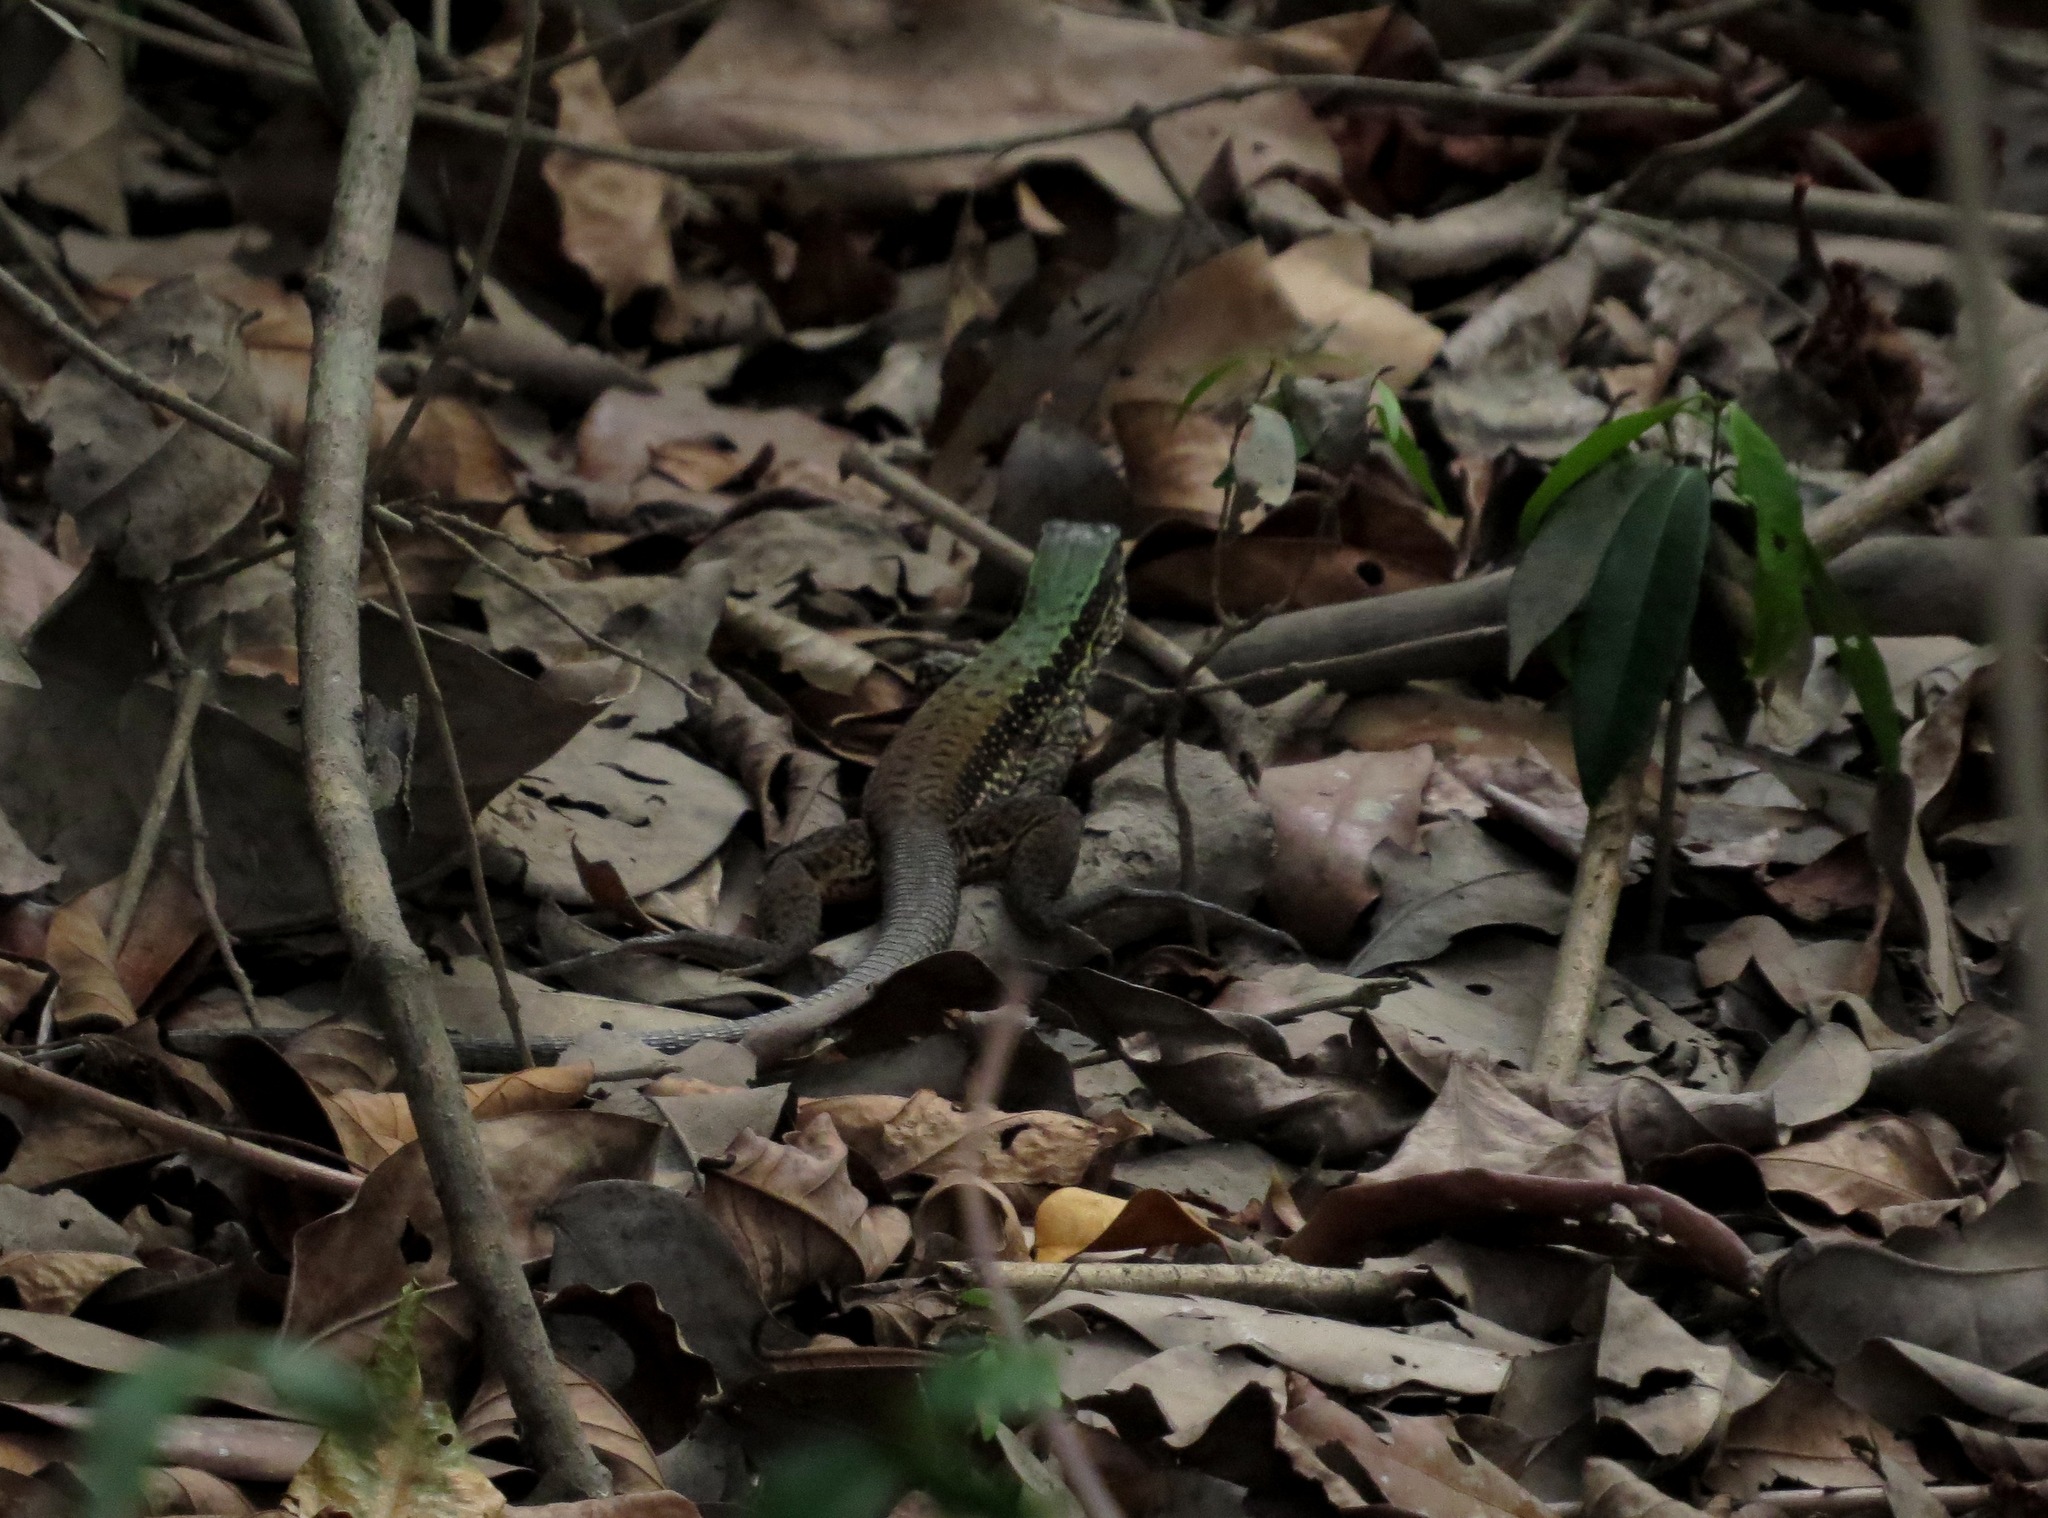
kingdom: Animalia
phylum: Chordata
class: Squamata
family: Teiidae
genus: Ameiva
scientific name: Ameiva ameiva
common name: Giant ameiva
